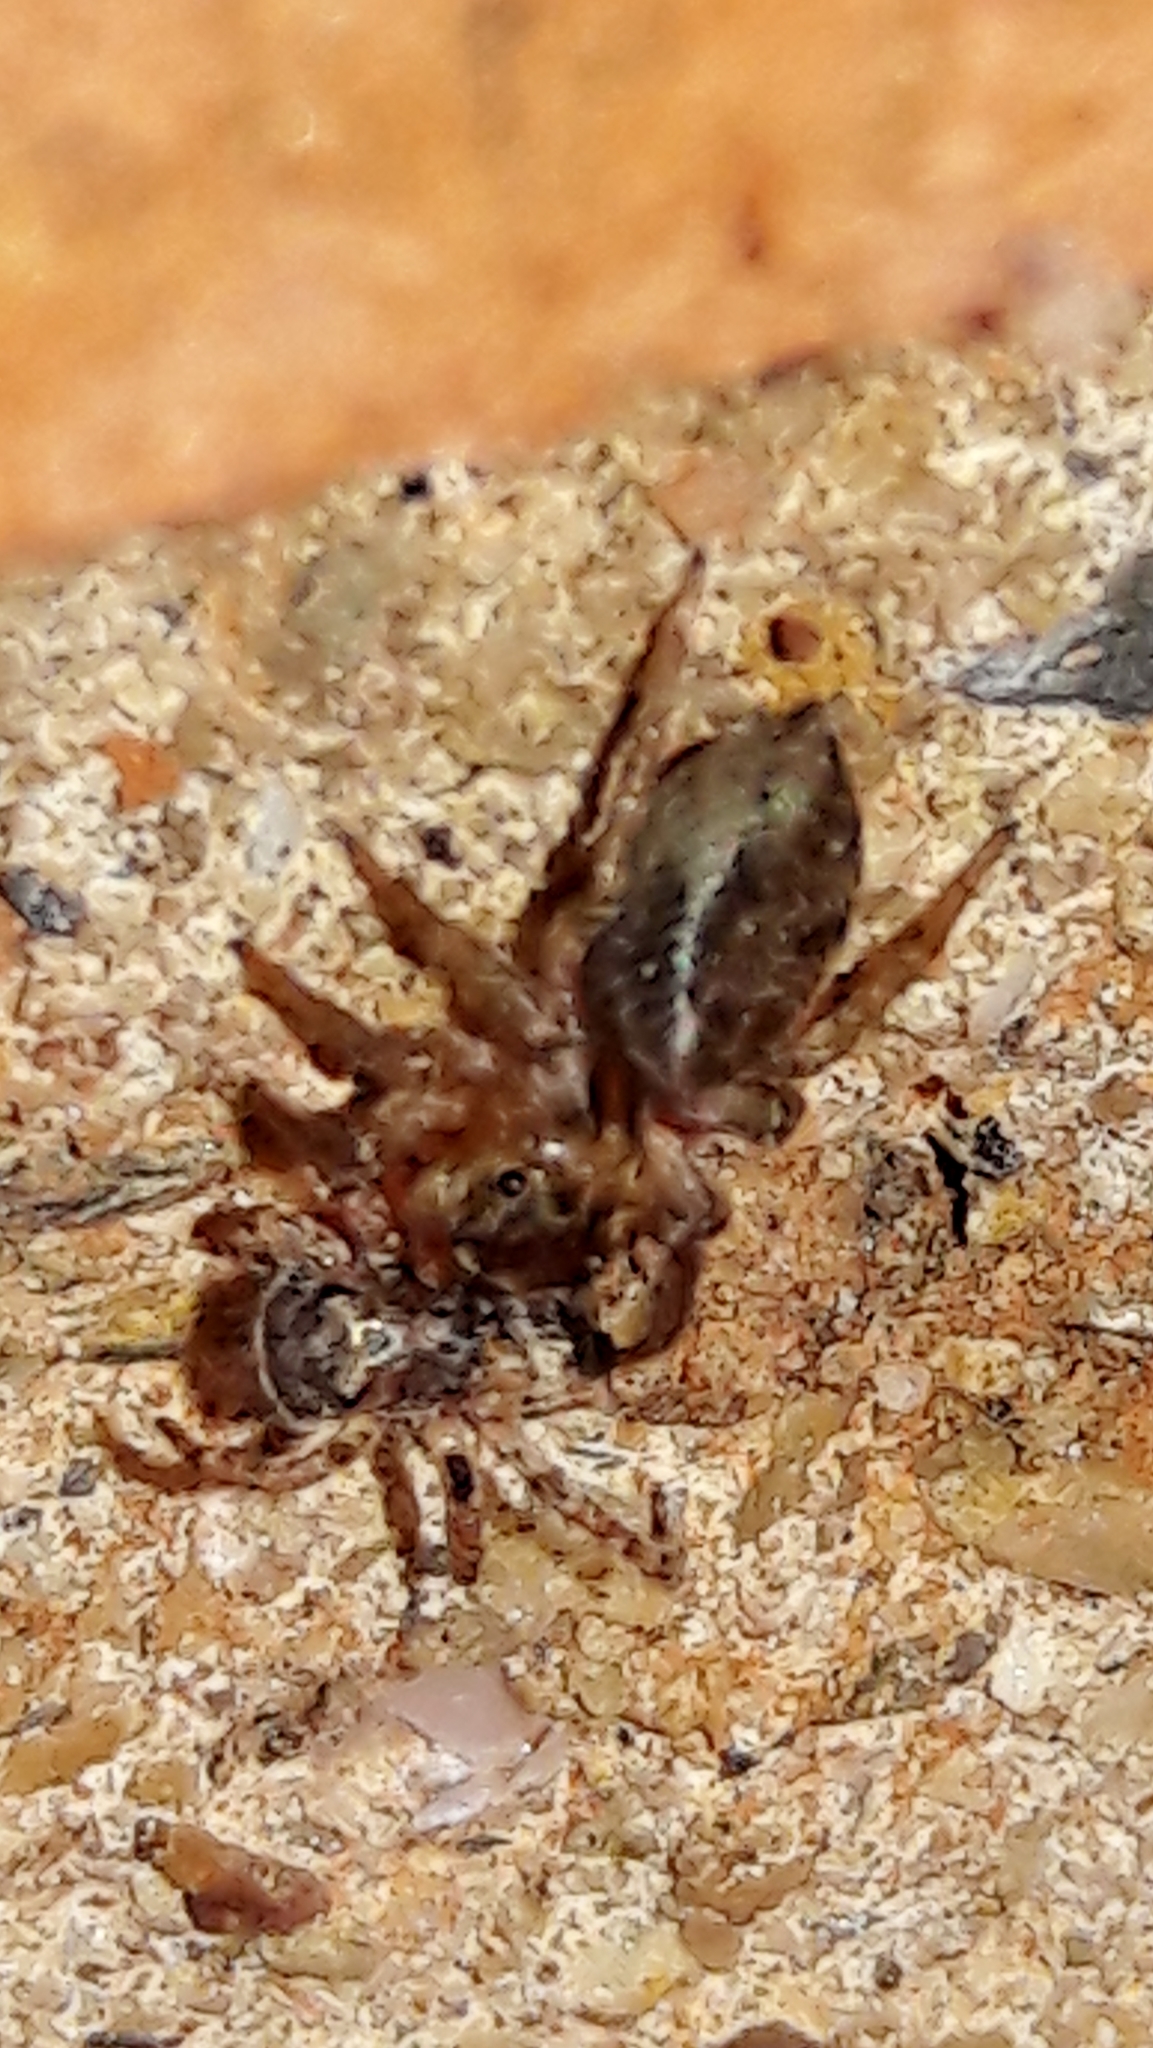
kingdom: Animalia
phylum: Arthropoda
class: Arachnida
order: Araneae
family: Salticidae
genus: Hasarius
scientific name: Hasarius adansoni
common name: Jumping spider
